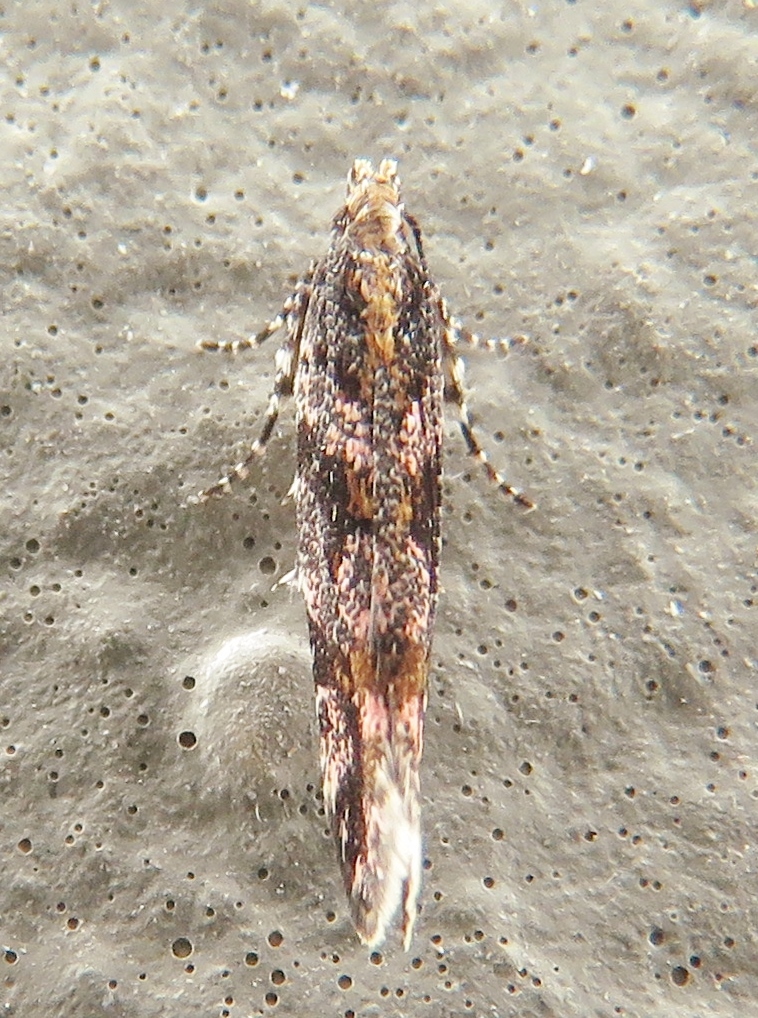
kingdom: Animalia
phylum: Arthropoda
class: Insecta
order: Lepidoptera
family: Gelechiidae
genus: Aristotelia
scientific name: Aristotelia roseosuffusella
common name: Pink-washed aristotelia moth
